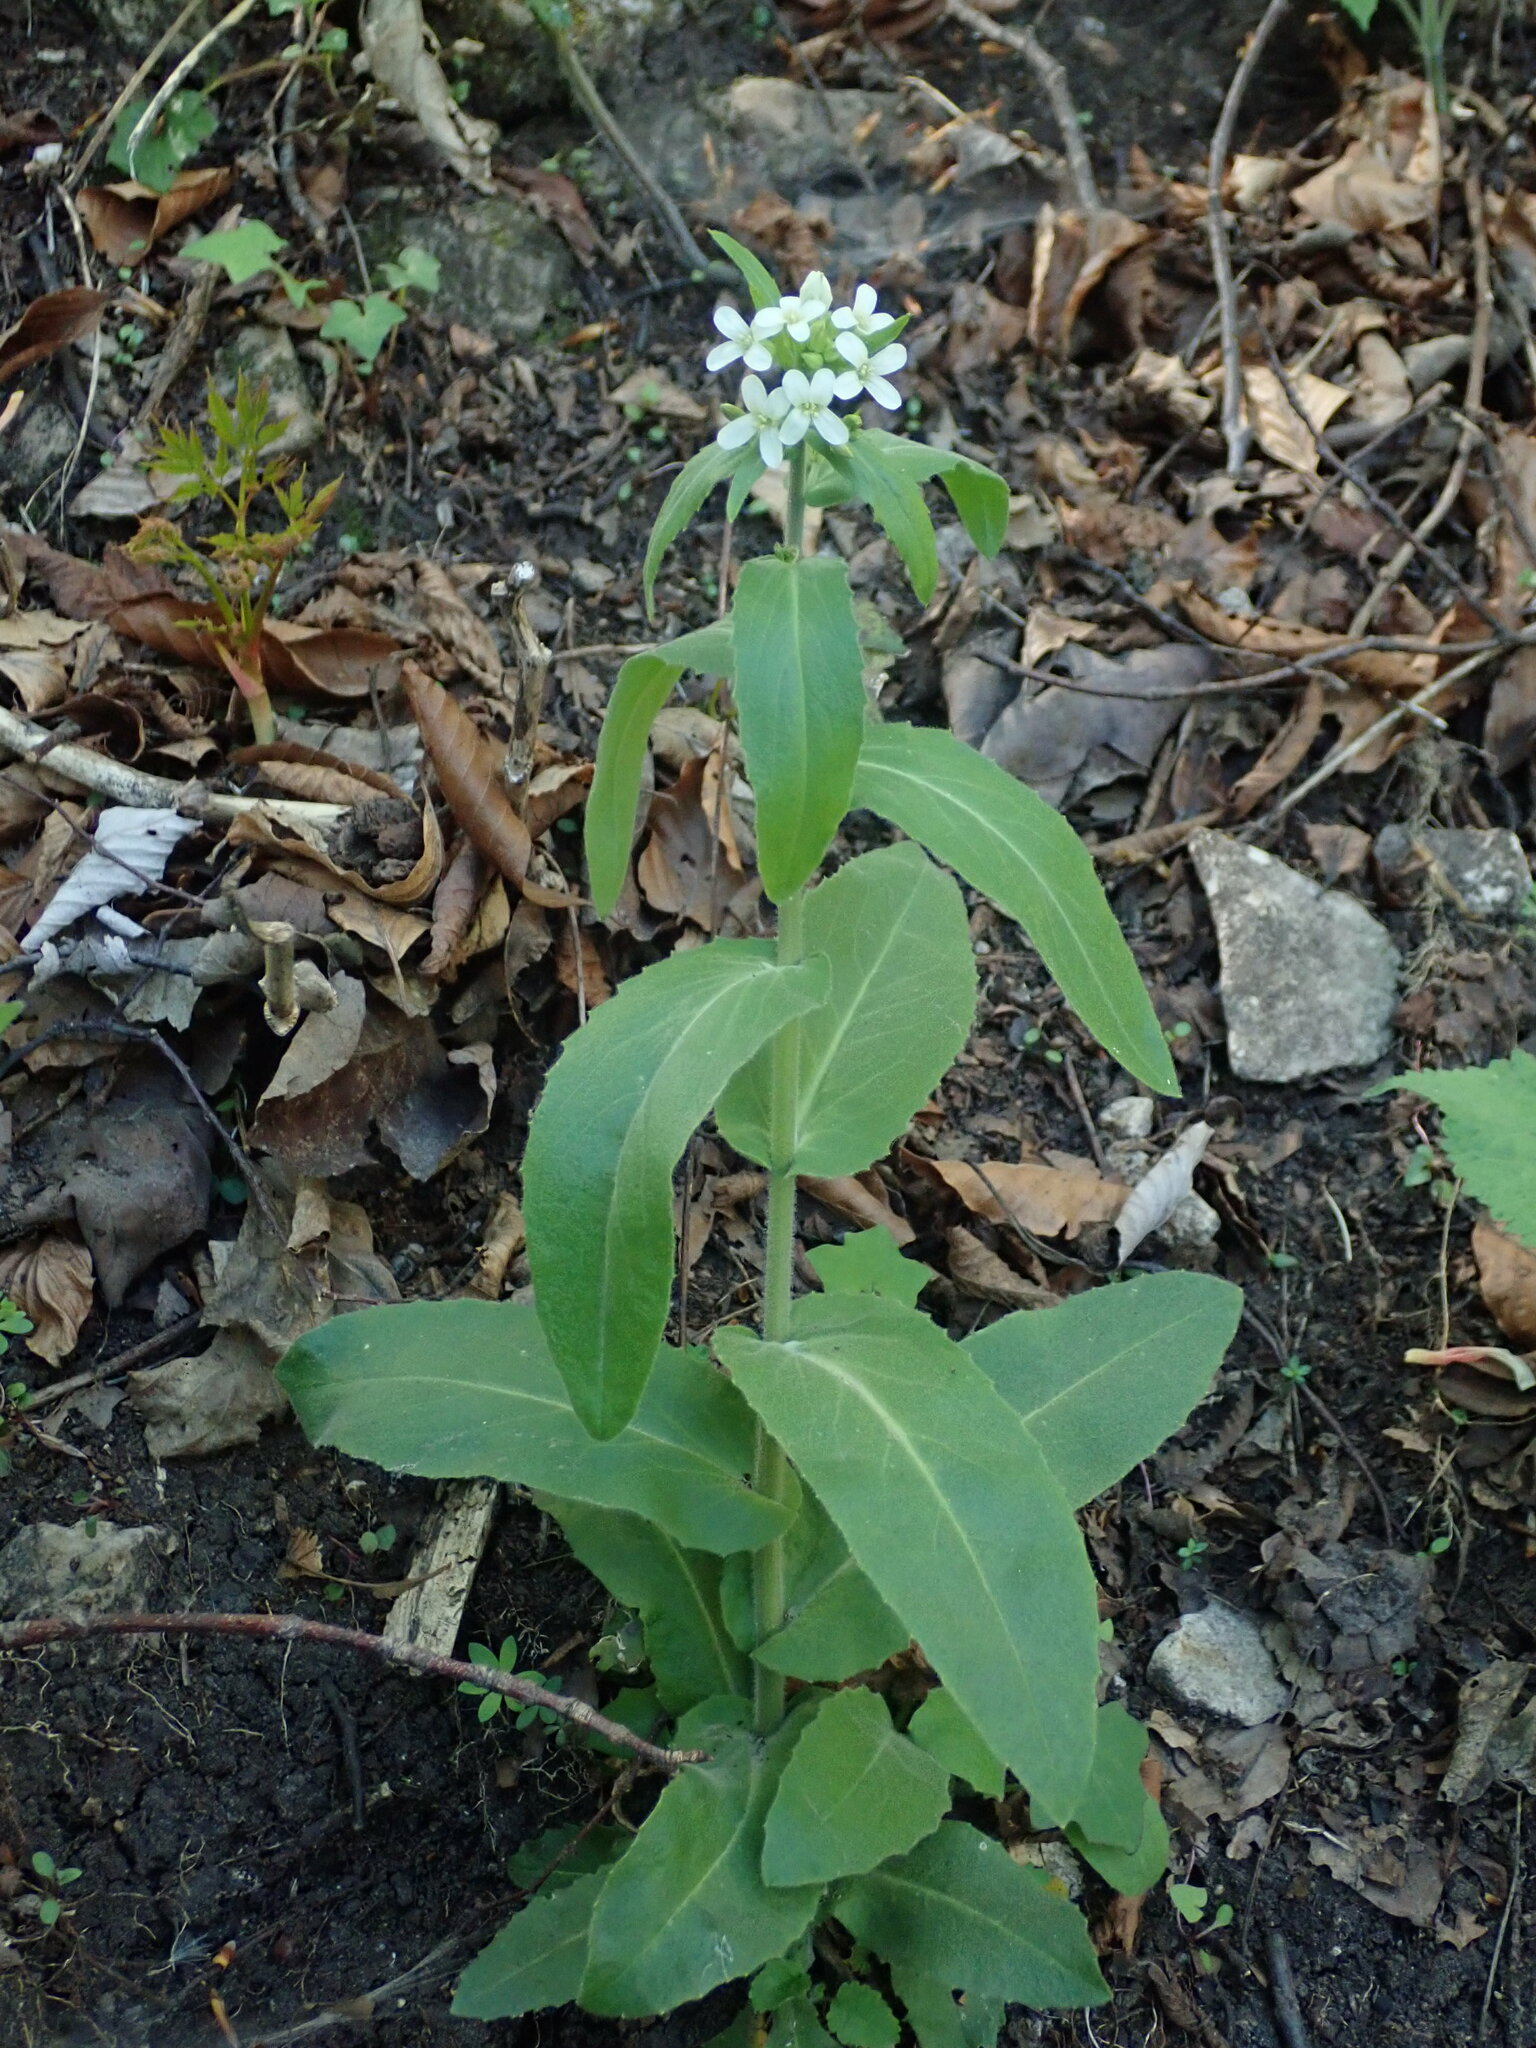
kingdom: Plantae
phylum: Tracheophyta
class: Magnoliopsida
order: Brassicales
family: Brassicaceae
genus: Pseudoturritis
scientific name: Pseudoturritis turrita
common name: Tower cress
